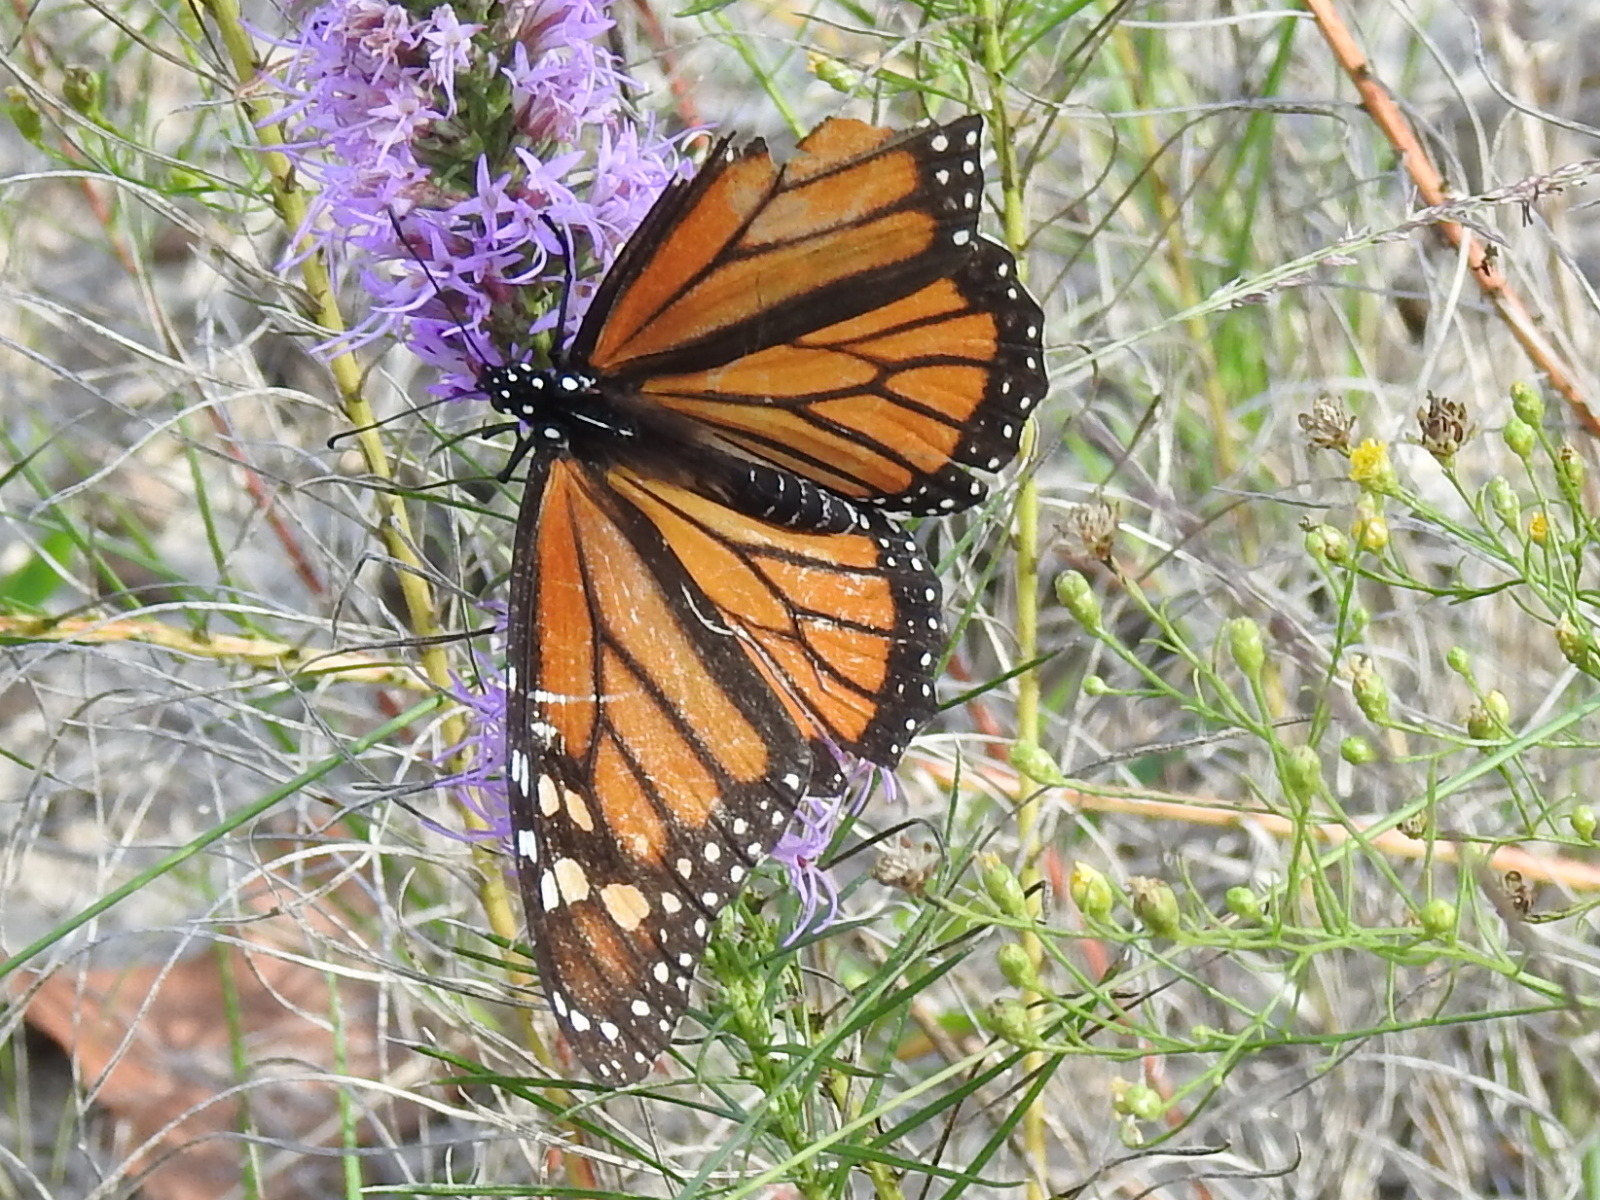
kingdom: Animalia
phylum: Arthropoda
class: Insecta
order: Lepidoptera
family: Nymphalidae
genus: Danaus
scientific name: Danaus plexippus
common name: Monarch
